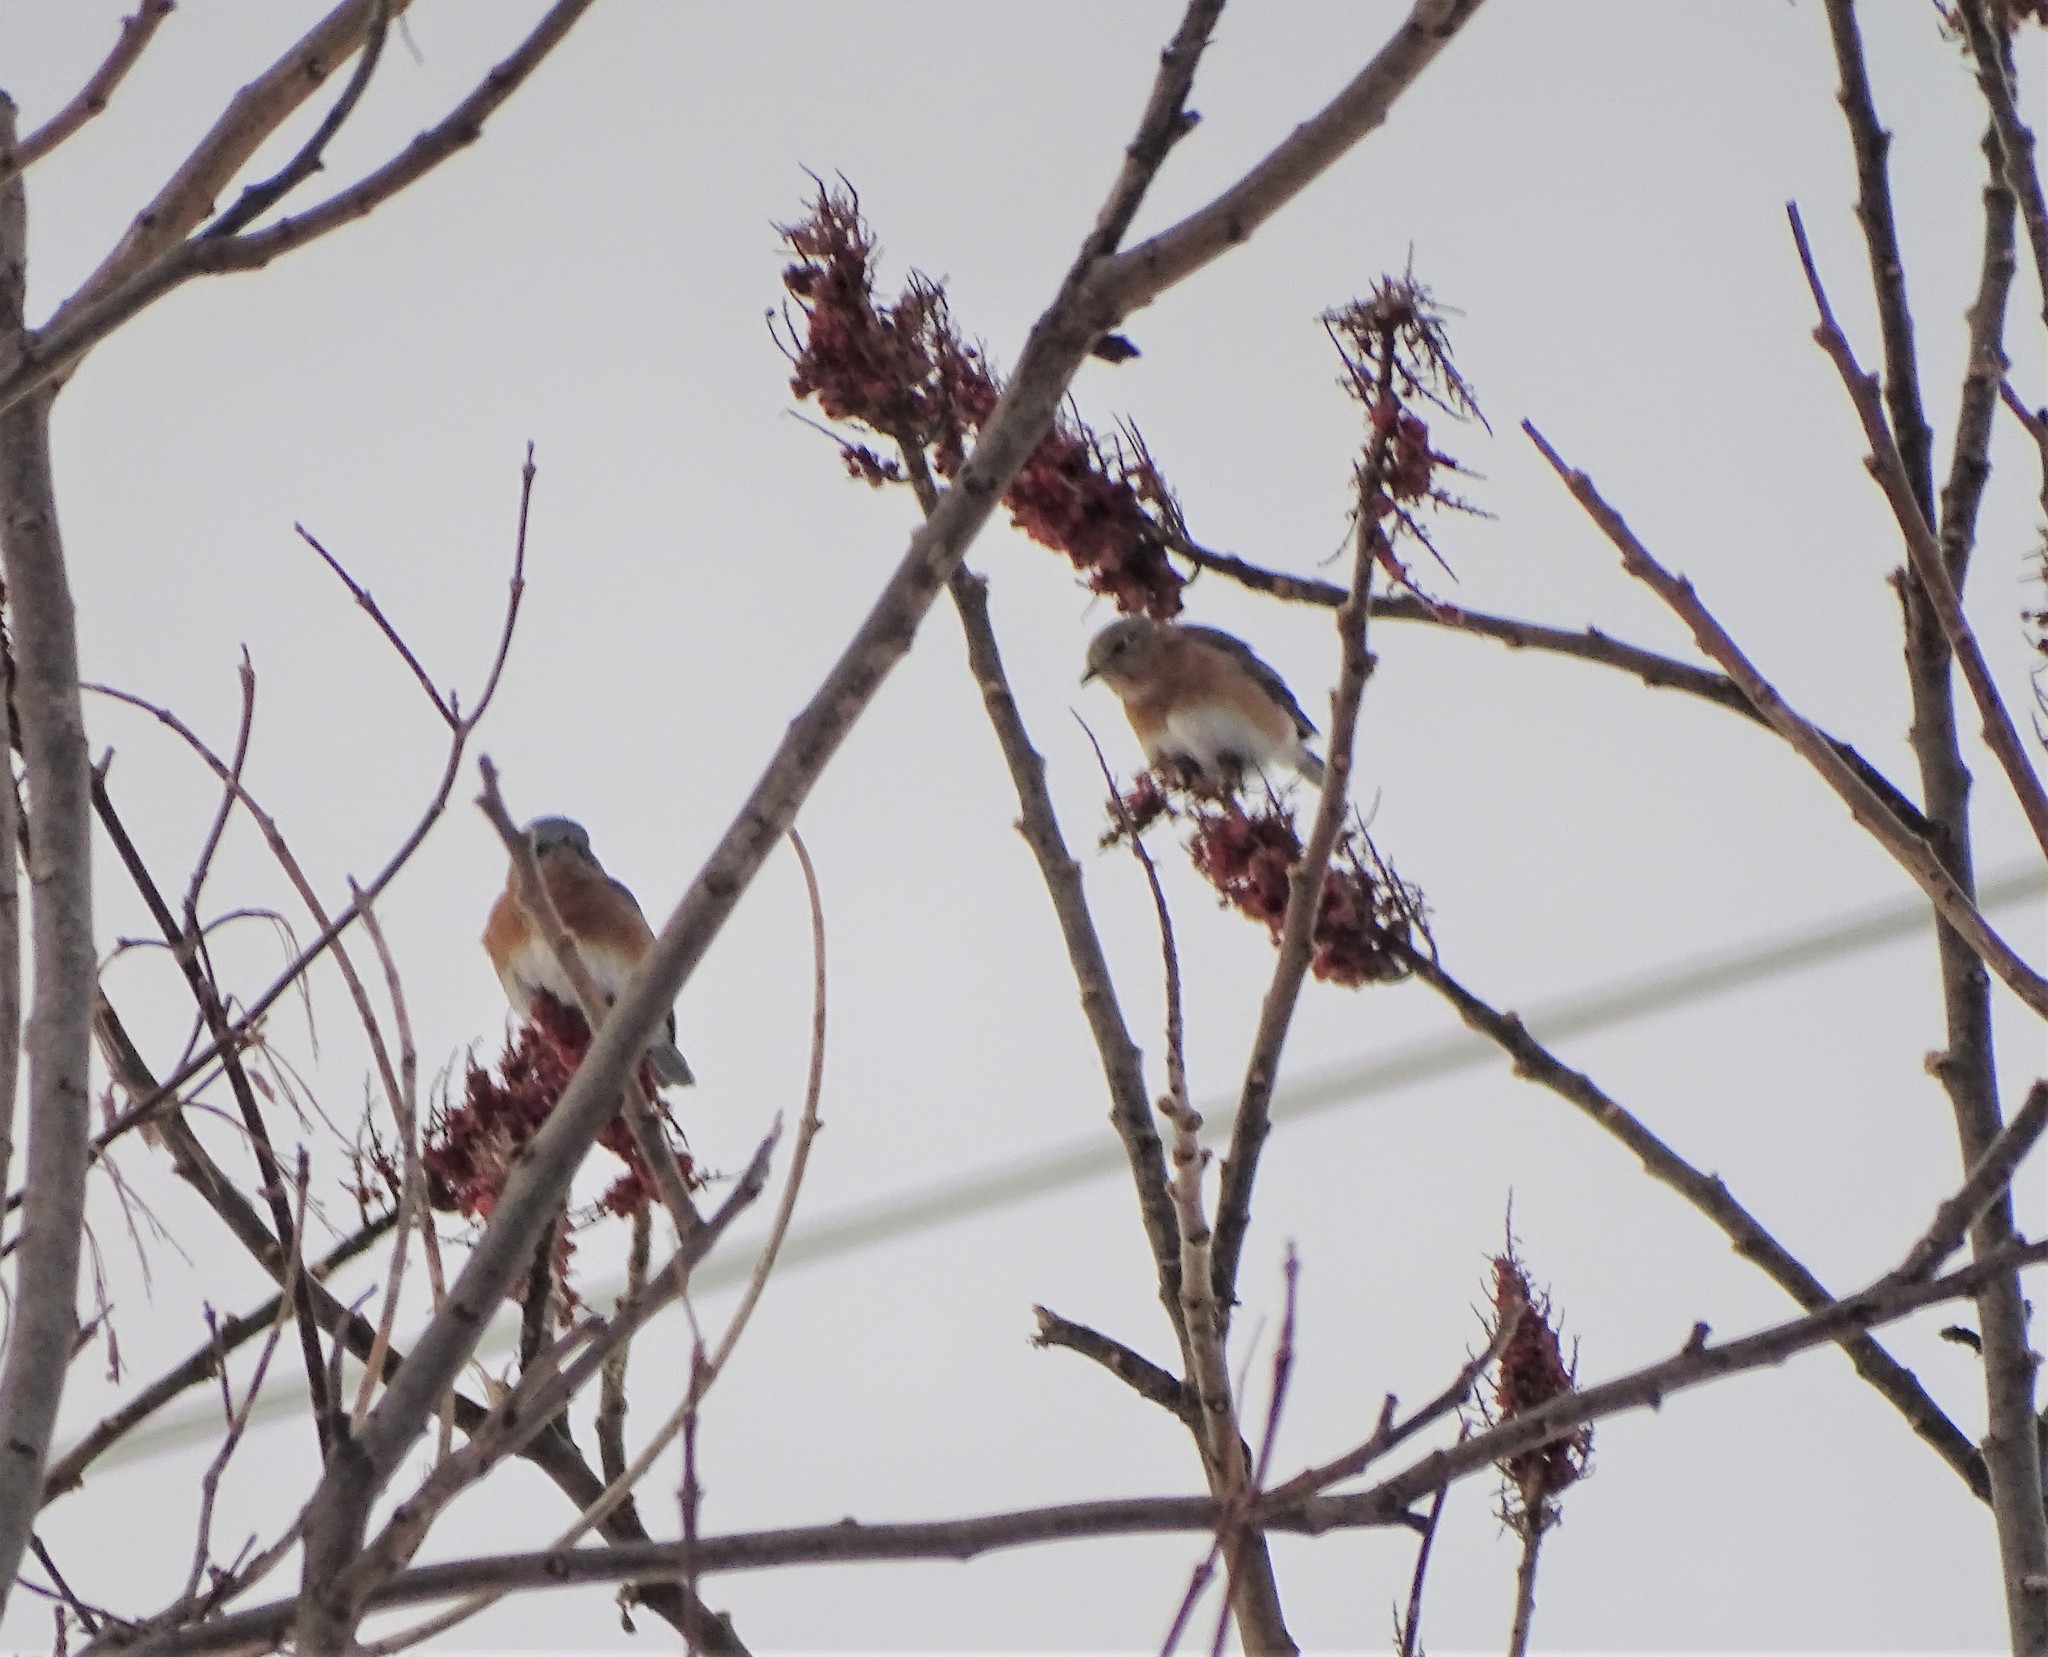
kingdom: Animalia
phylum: Chordata
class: Aves
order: Passeriformes
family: Turdidae
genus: Sialia
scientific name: Sialia sialis
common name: Eastern bluebird
